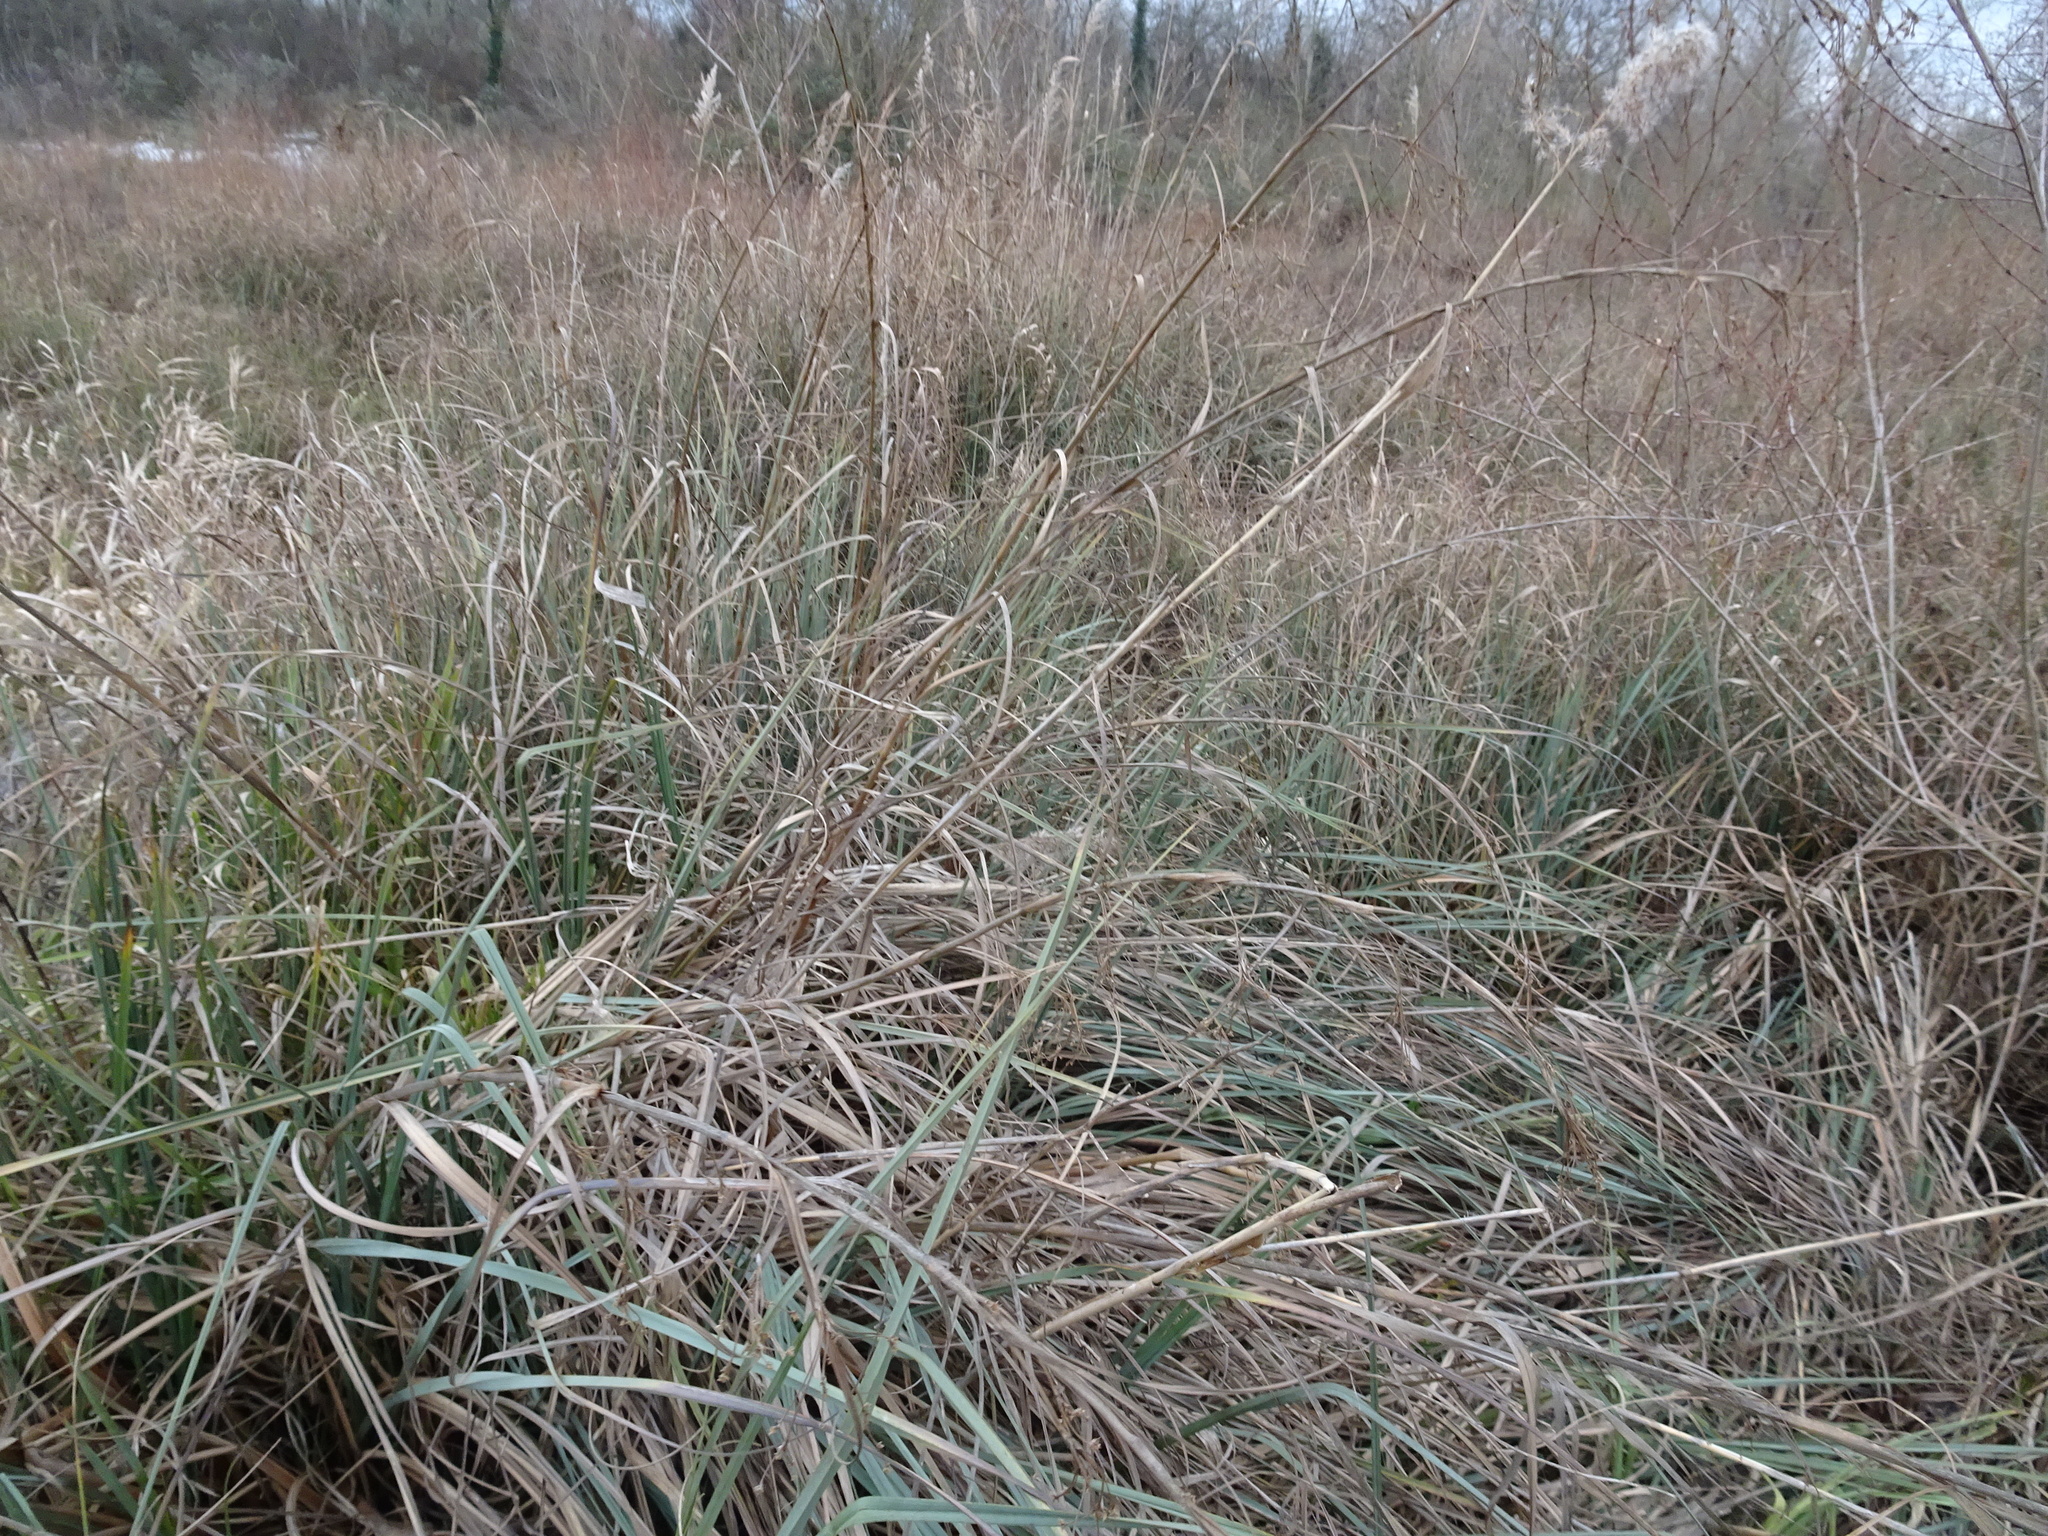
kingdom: Plantae
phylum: Tracheophyta
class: Liliopsida
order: Poales
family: Poaceae
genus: Phragmites
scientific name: Phragmites australis
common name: Common reed
